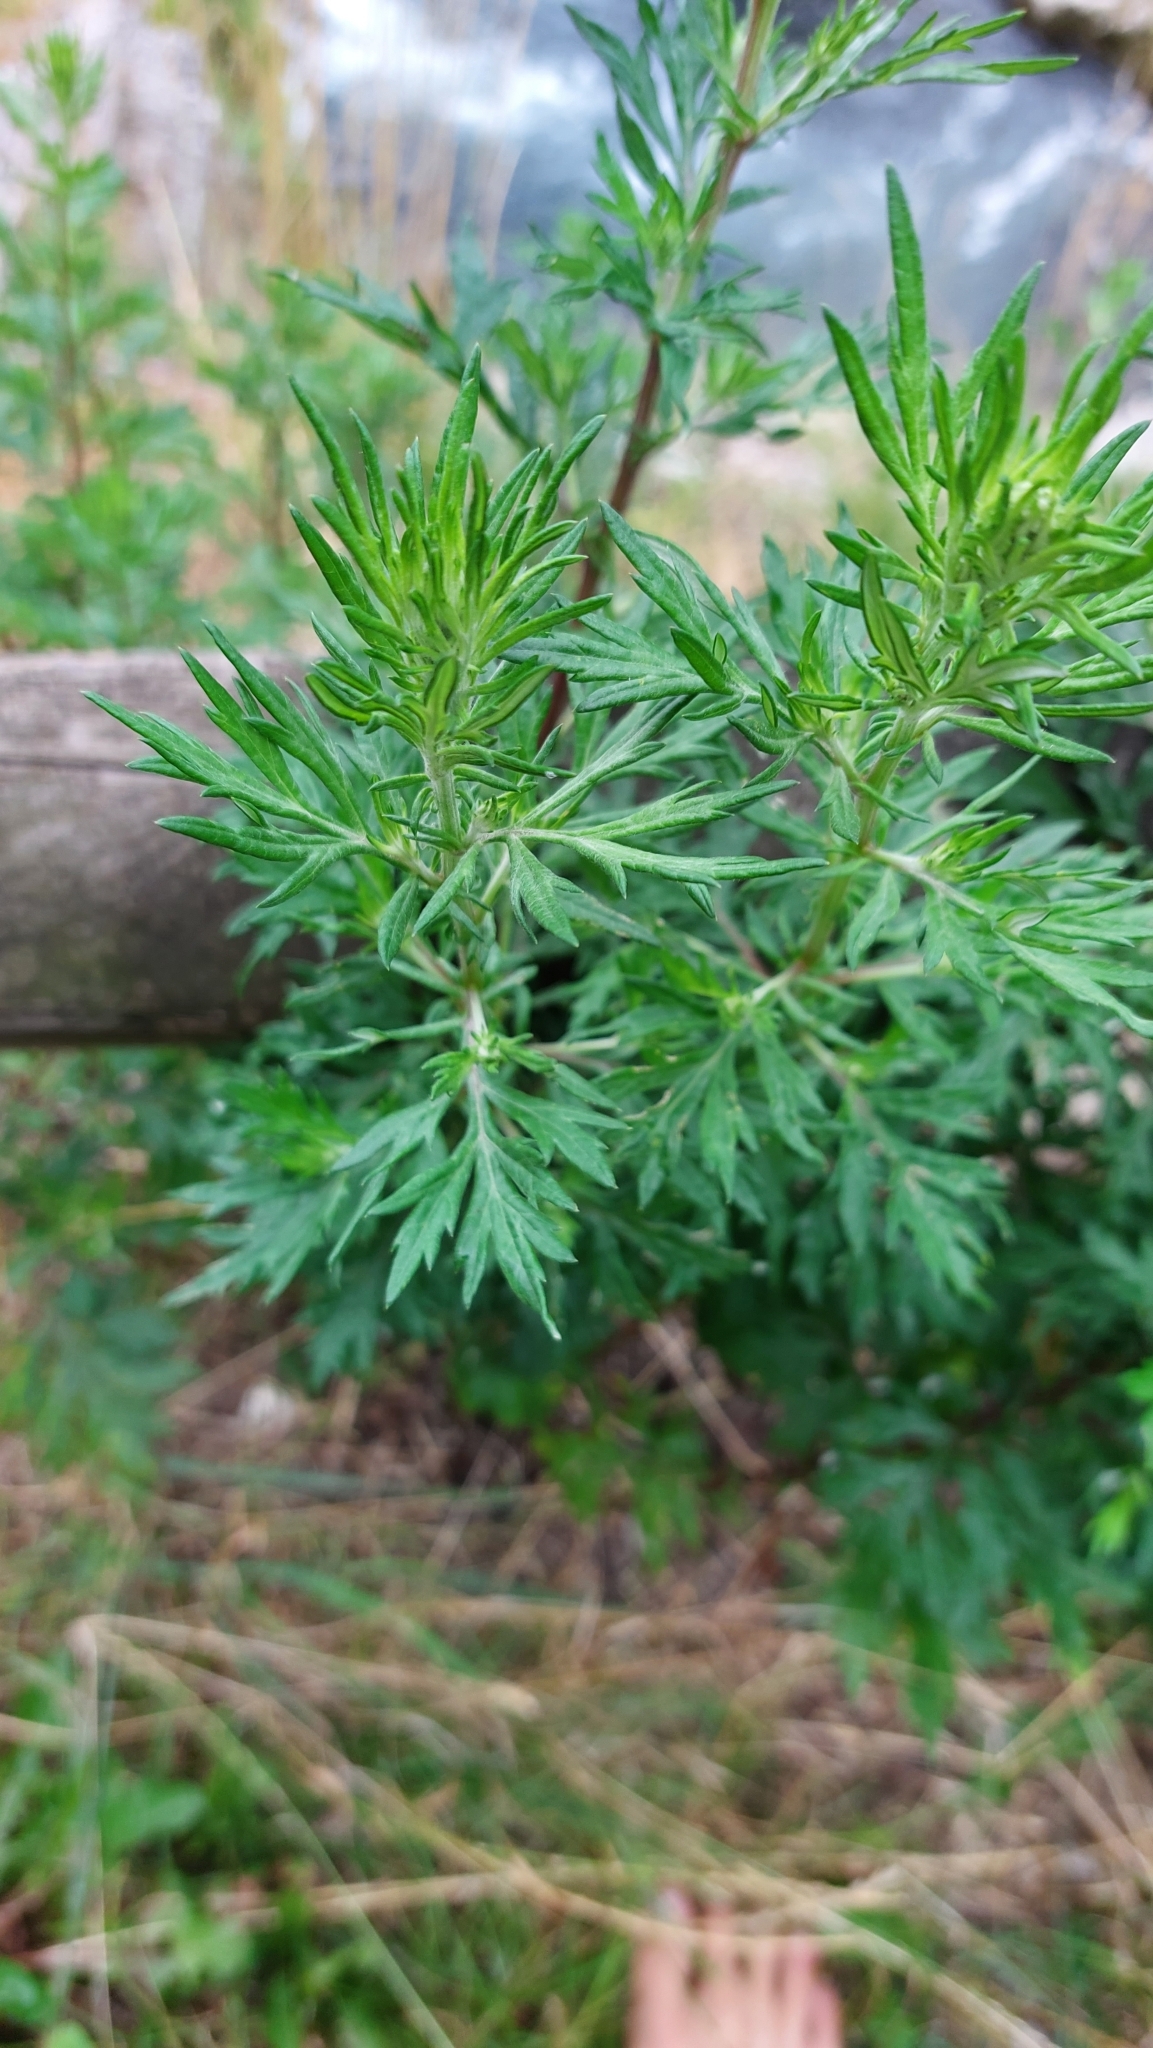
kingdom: Plantae
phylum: Tracheophyta
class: Magnoliopsida
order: Asterales
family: Asteraceae
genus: Artemisia
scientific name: Artemisia vulgaris
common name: Mugwort
